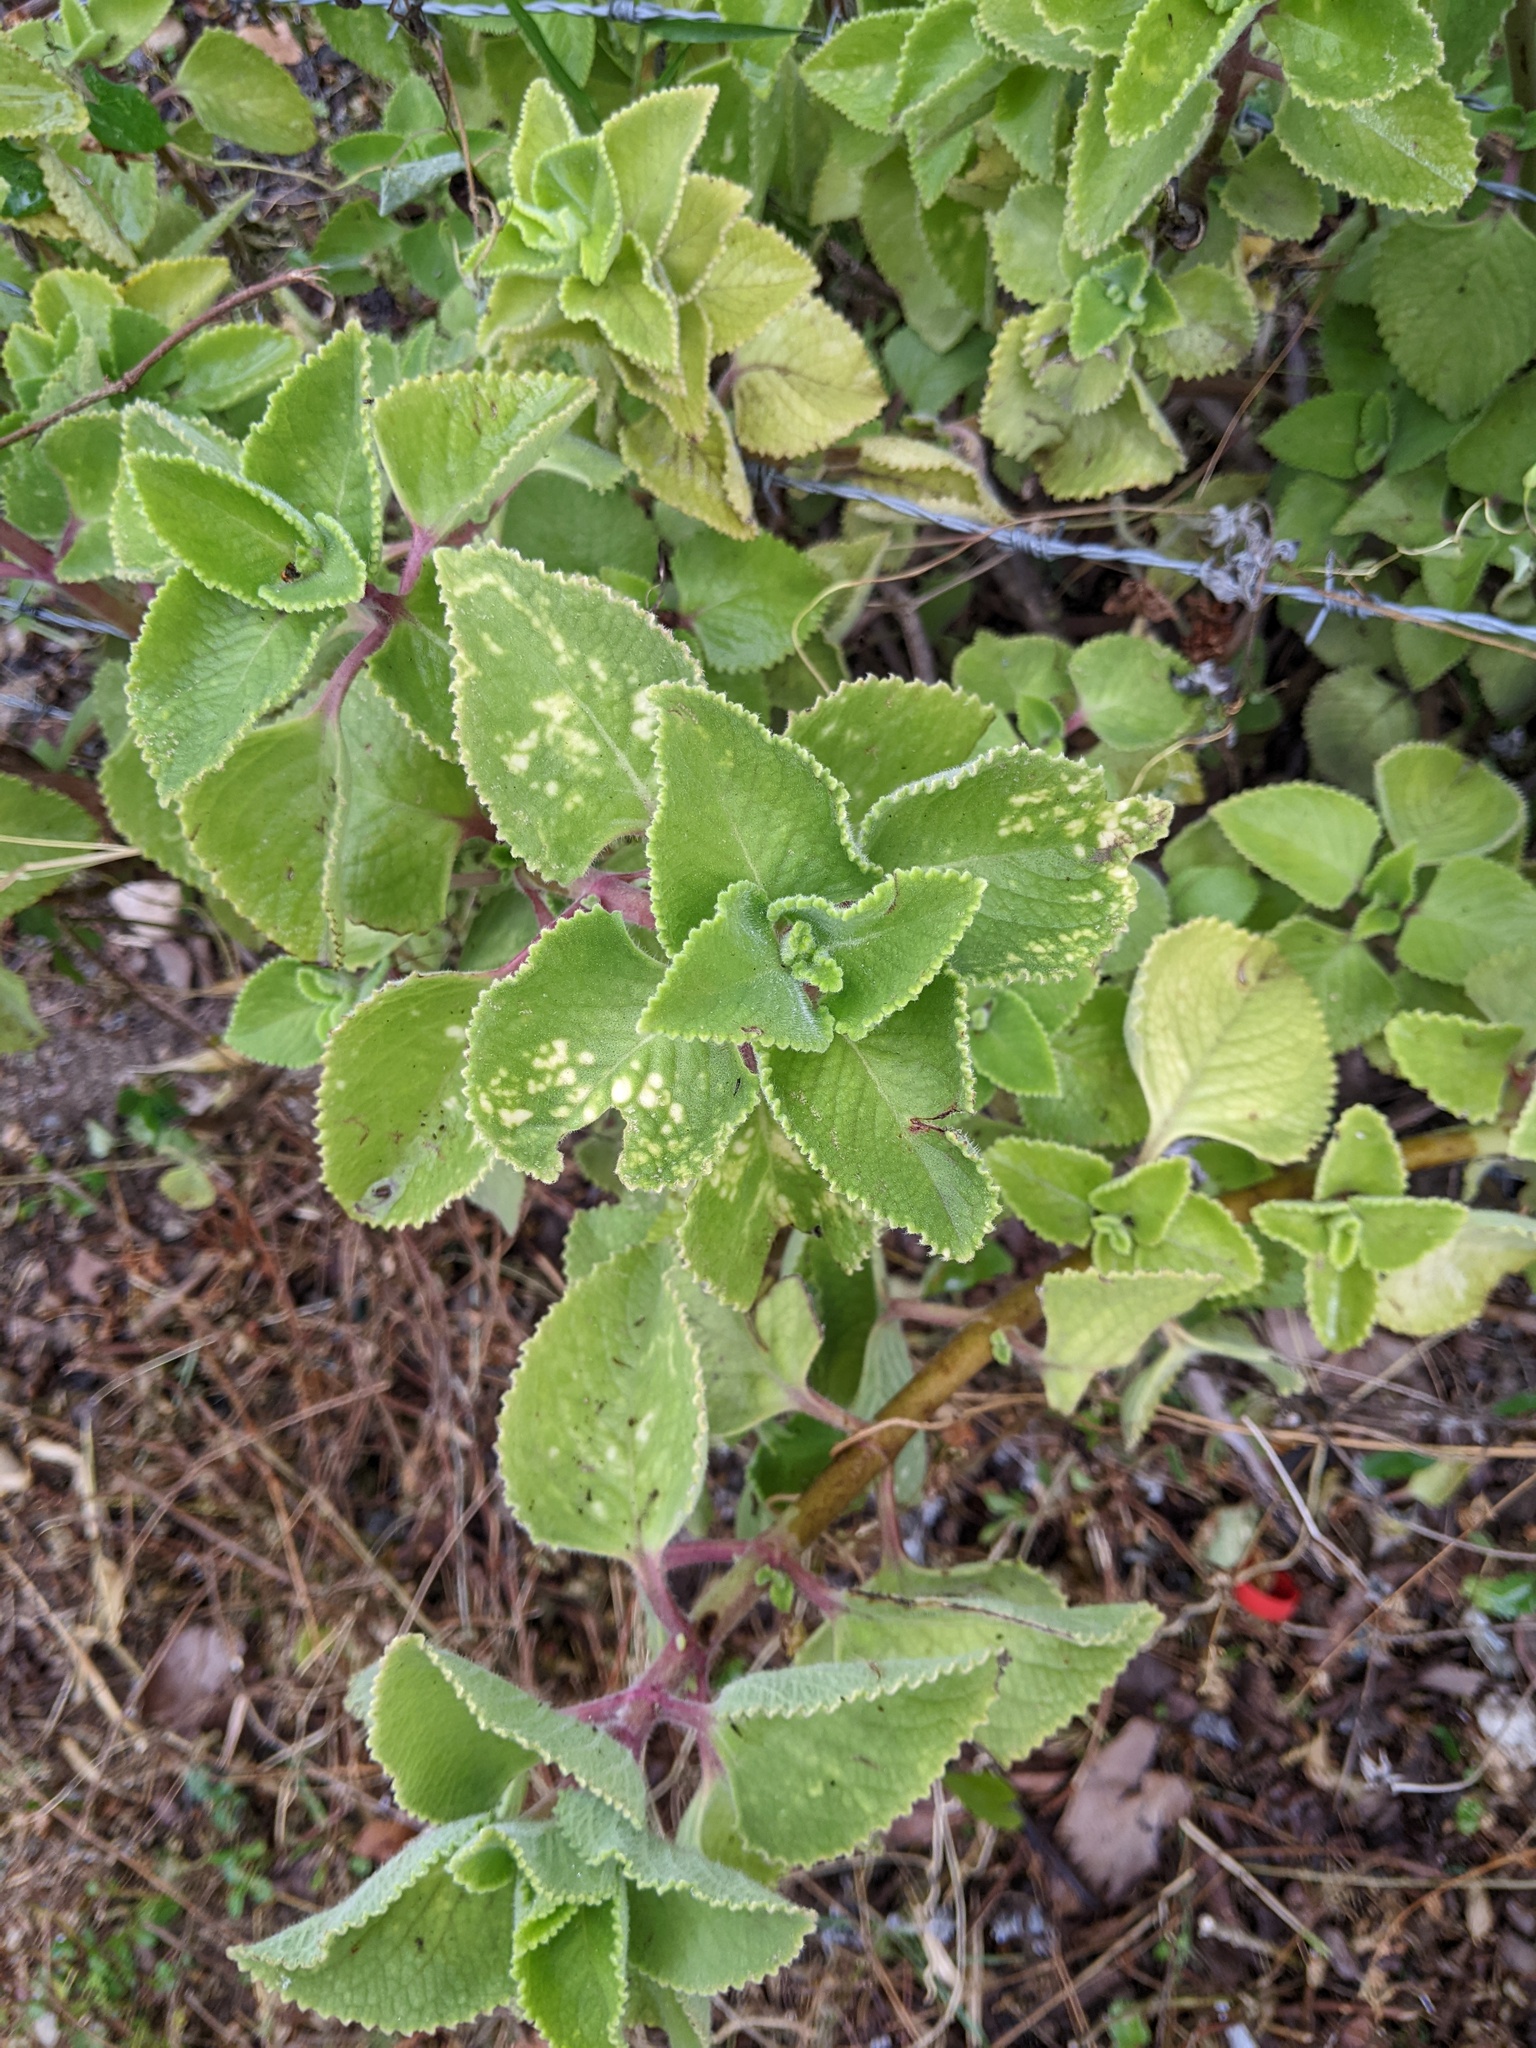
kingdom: Plantae
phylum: Tracheophyta
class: Magnoliopsida
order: Lamiales
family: Lamiaceae
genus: Coleus
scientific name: Coleus amboinicus
